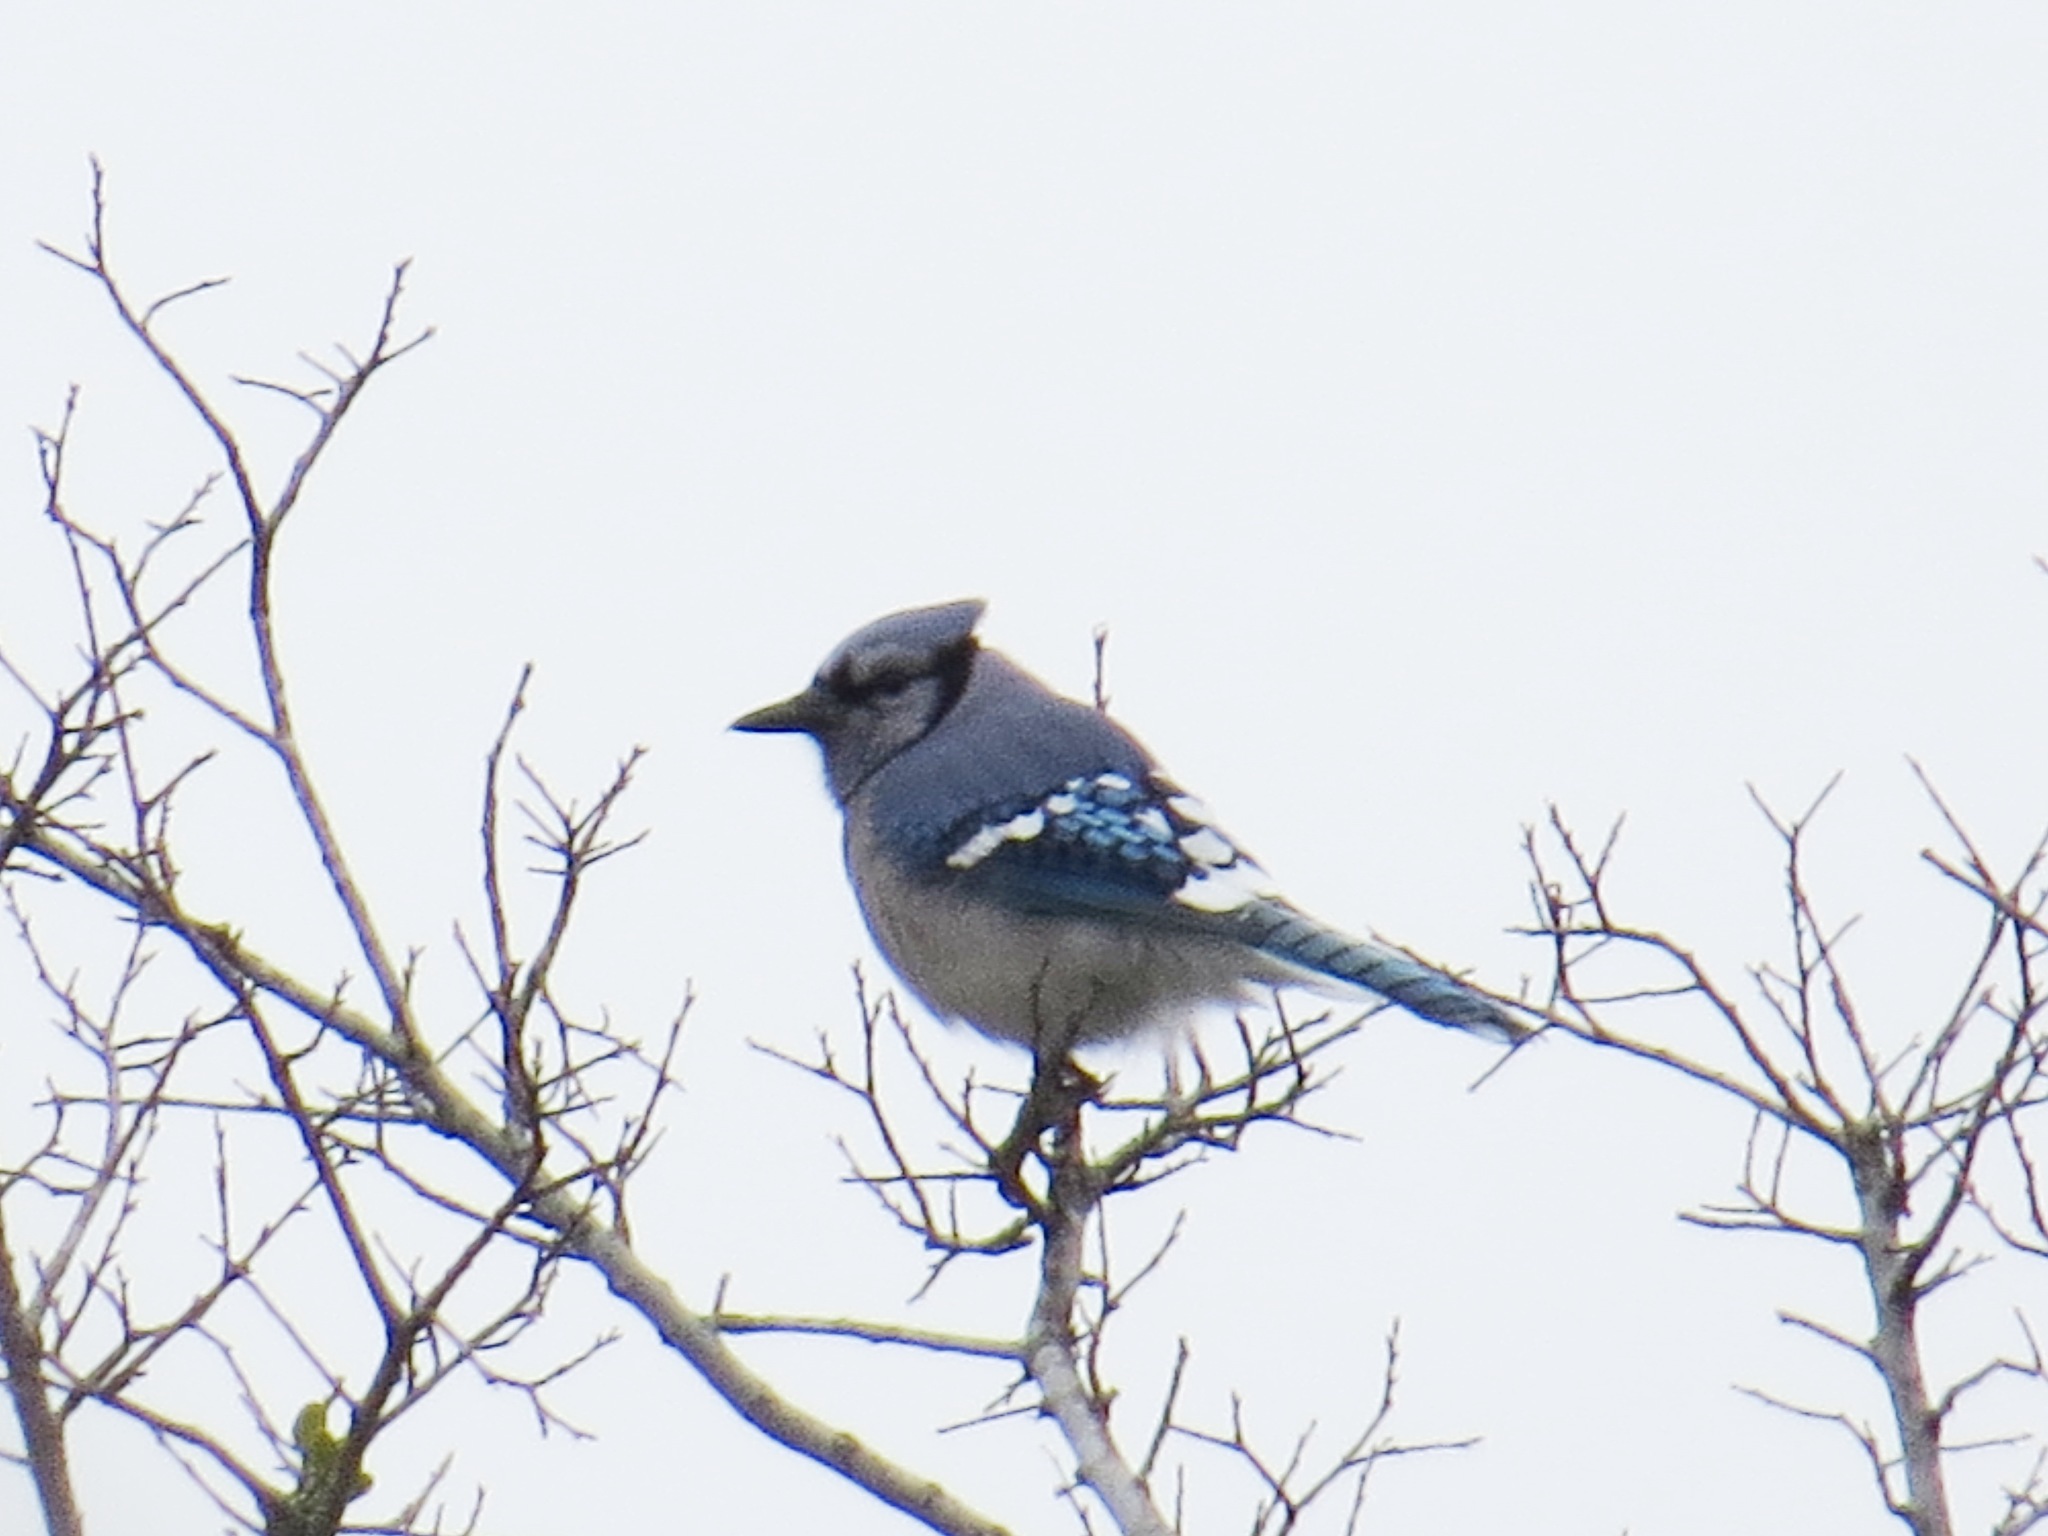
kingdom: Animalia
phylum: Chordata
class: Aves
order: Passeriformes
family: Corvidae
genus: Cyanocitta
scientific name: Cyanocitta cristata
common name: Blue jay
